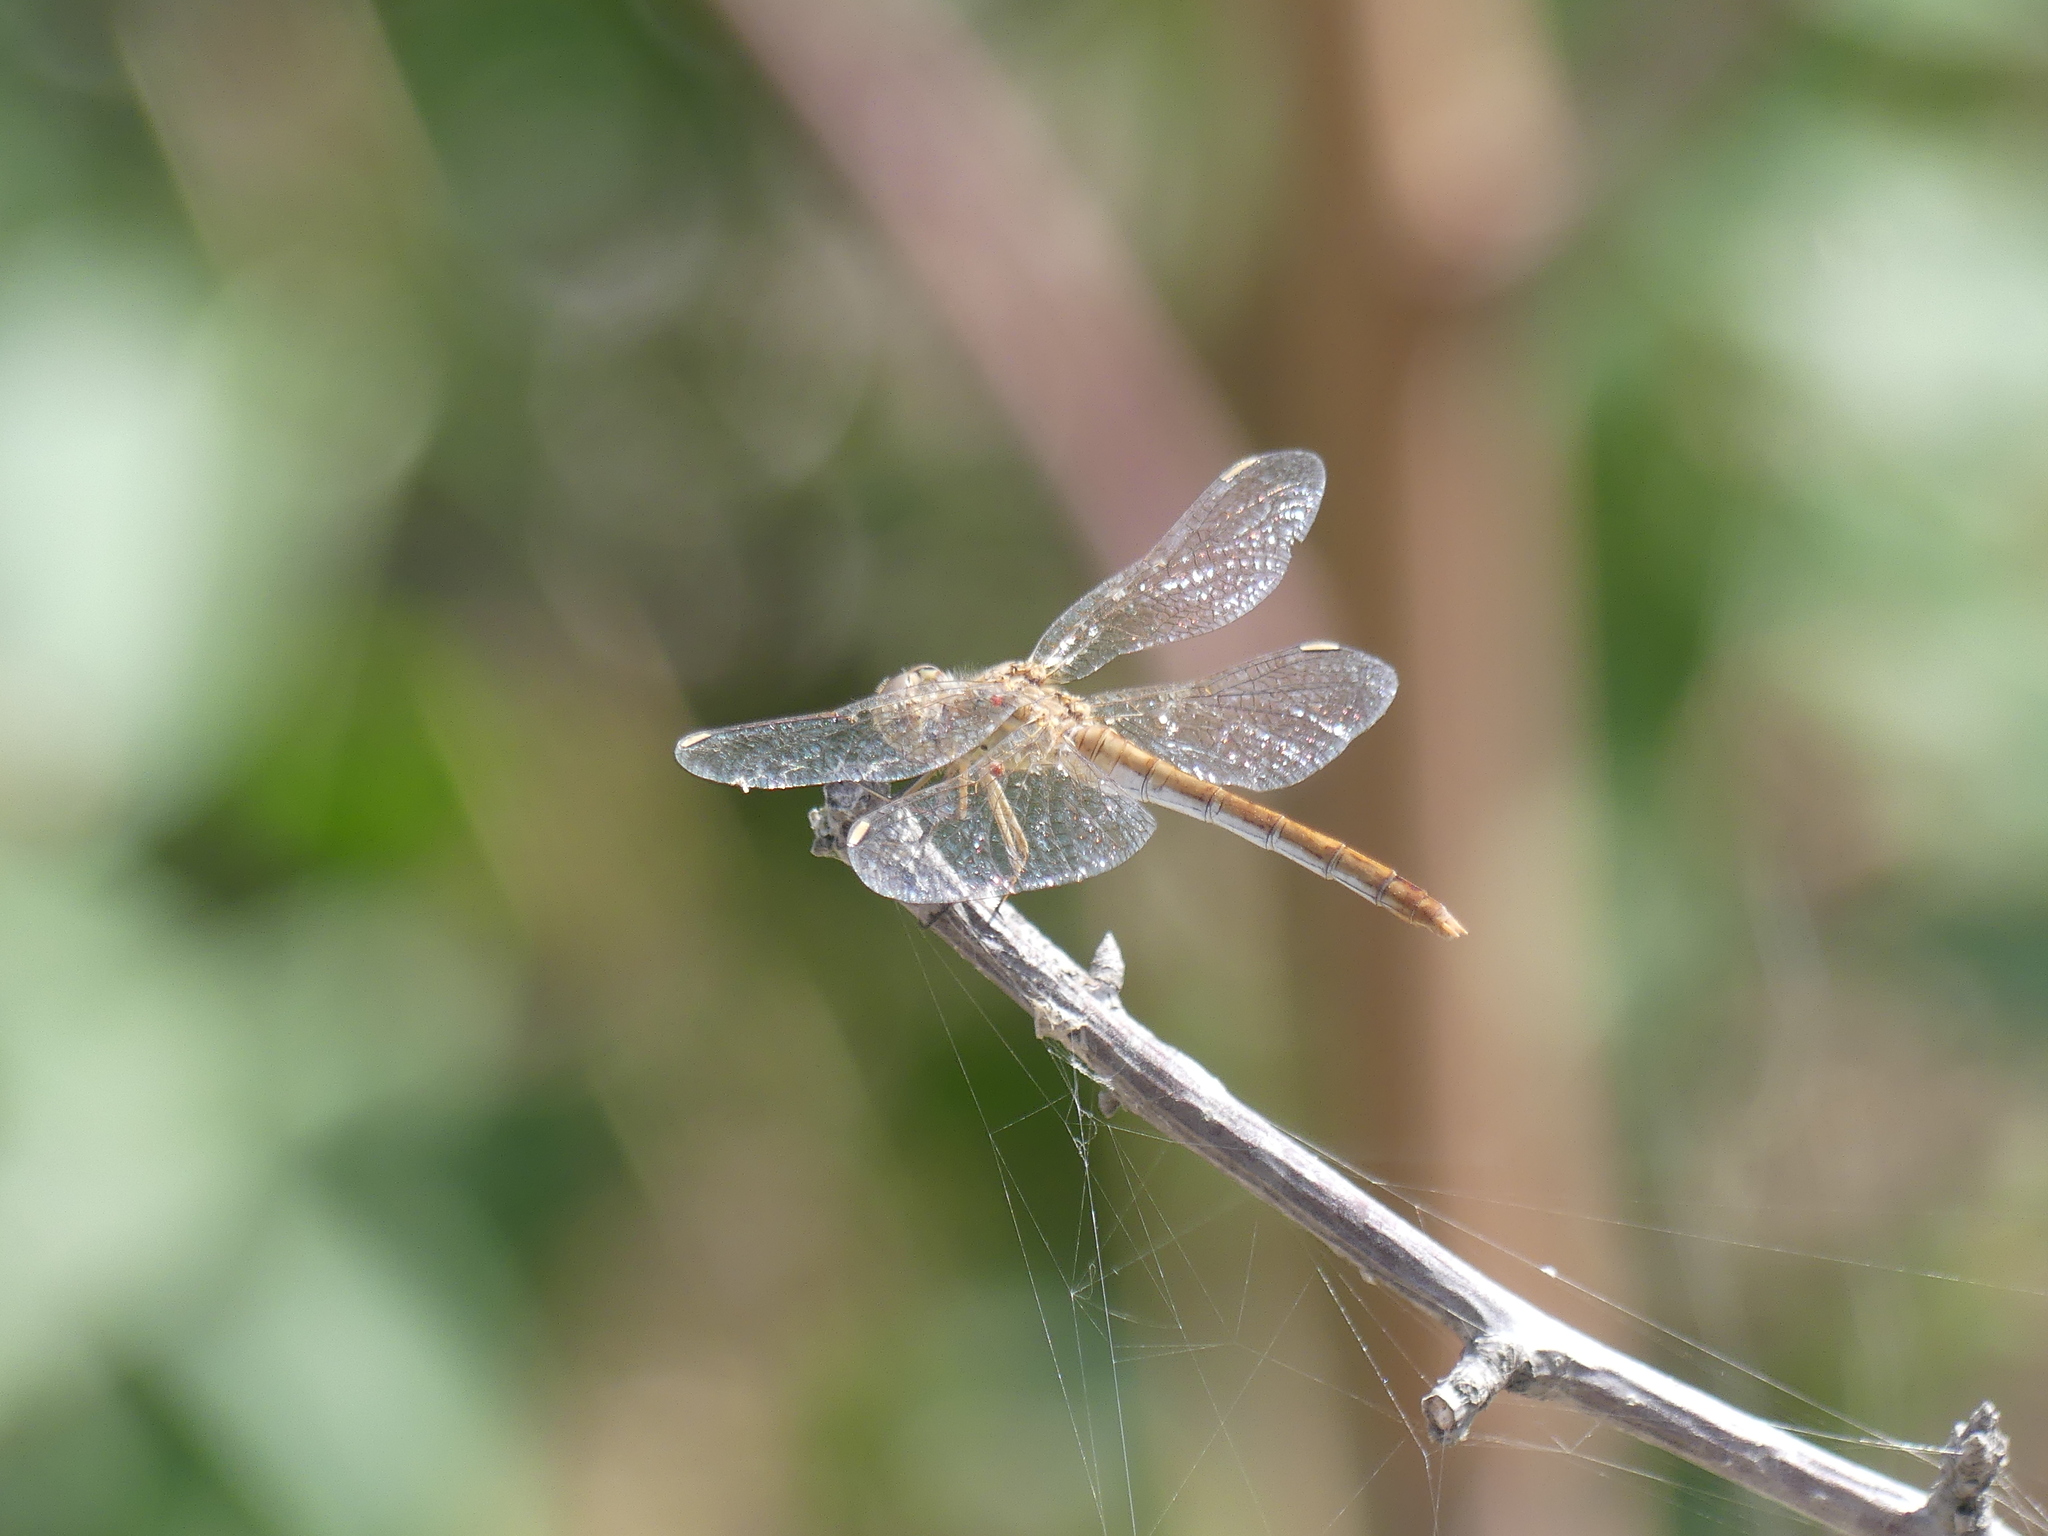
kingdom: Animalia
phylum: Arthropoda
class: Insecta
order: Odonata
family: Libellulidae
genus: Sympetrum
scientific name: Sympetrum meridionale
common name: Southern darter
